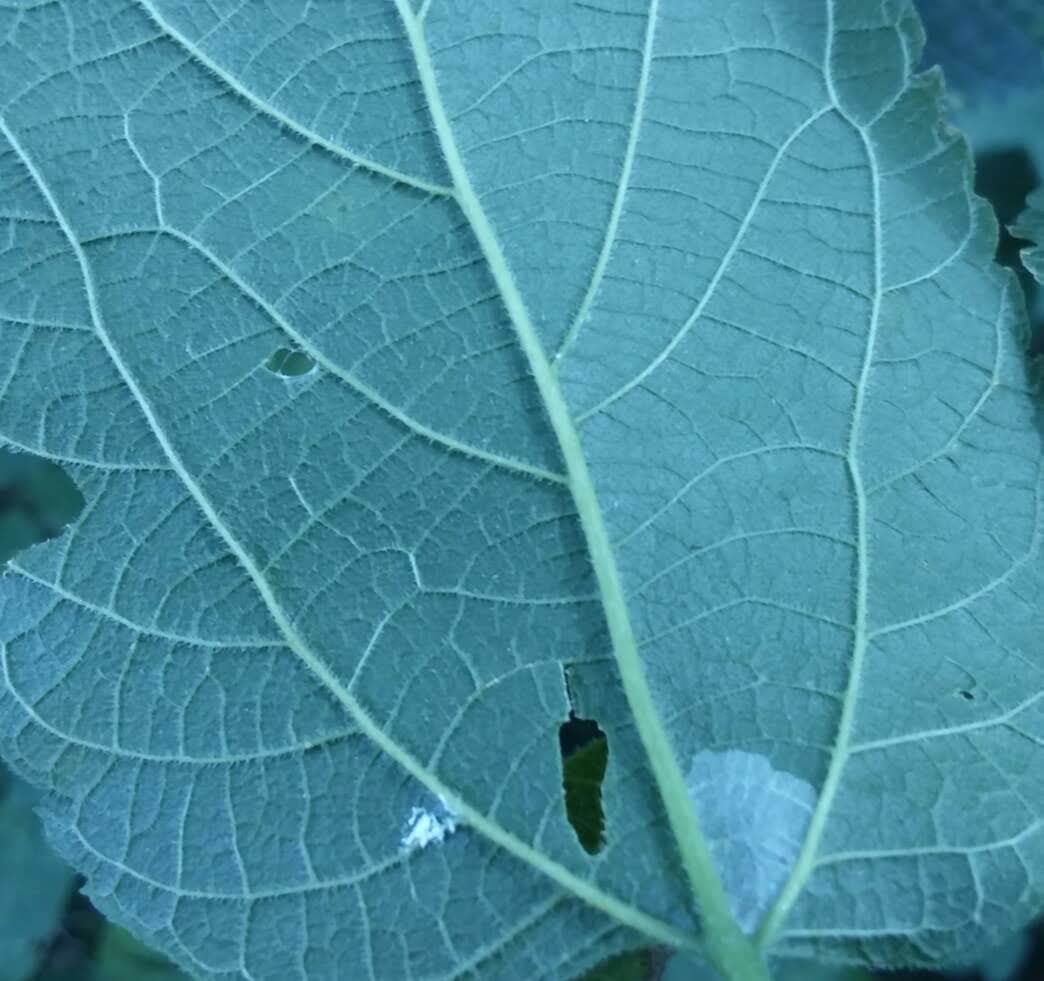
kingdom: Animalia
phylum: Arthropoda
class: Insecta
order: Lepidoptera
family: Gracillariidae
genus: Phyllonorycter
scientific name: Phyllonorycter celtifoliella
